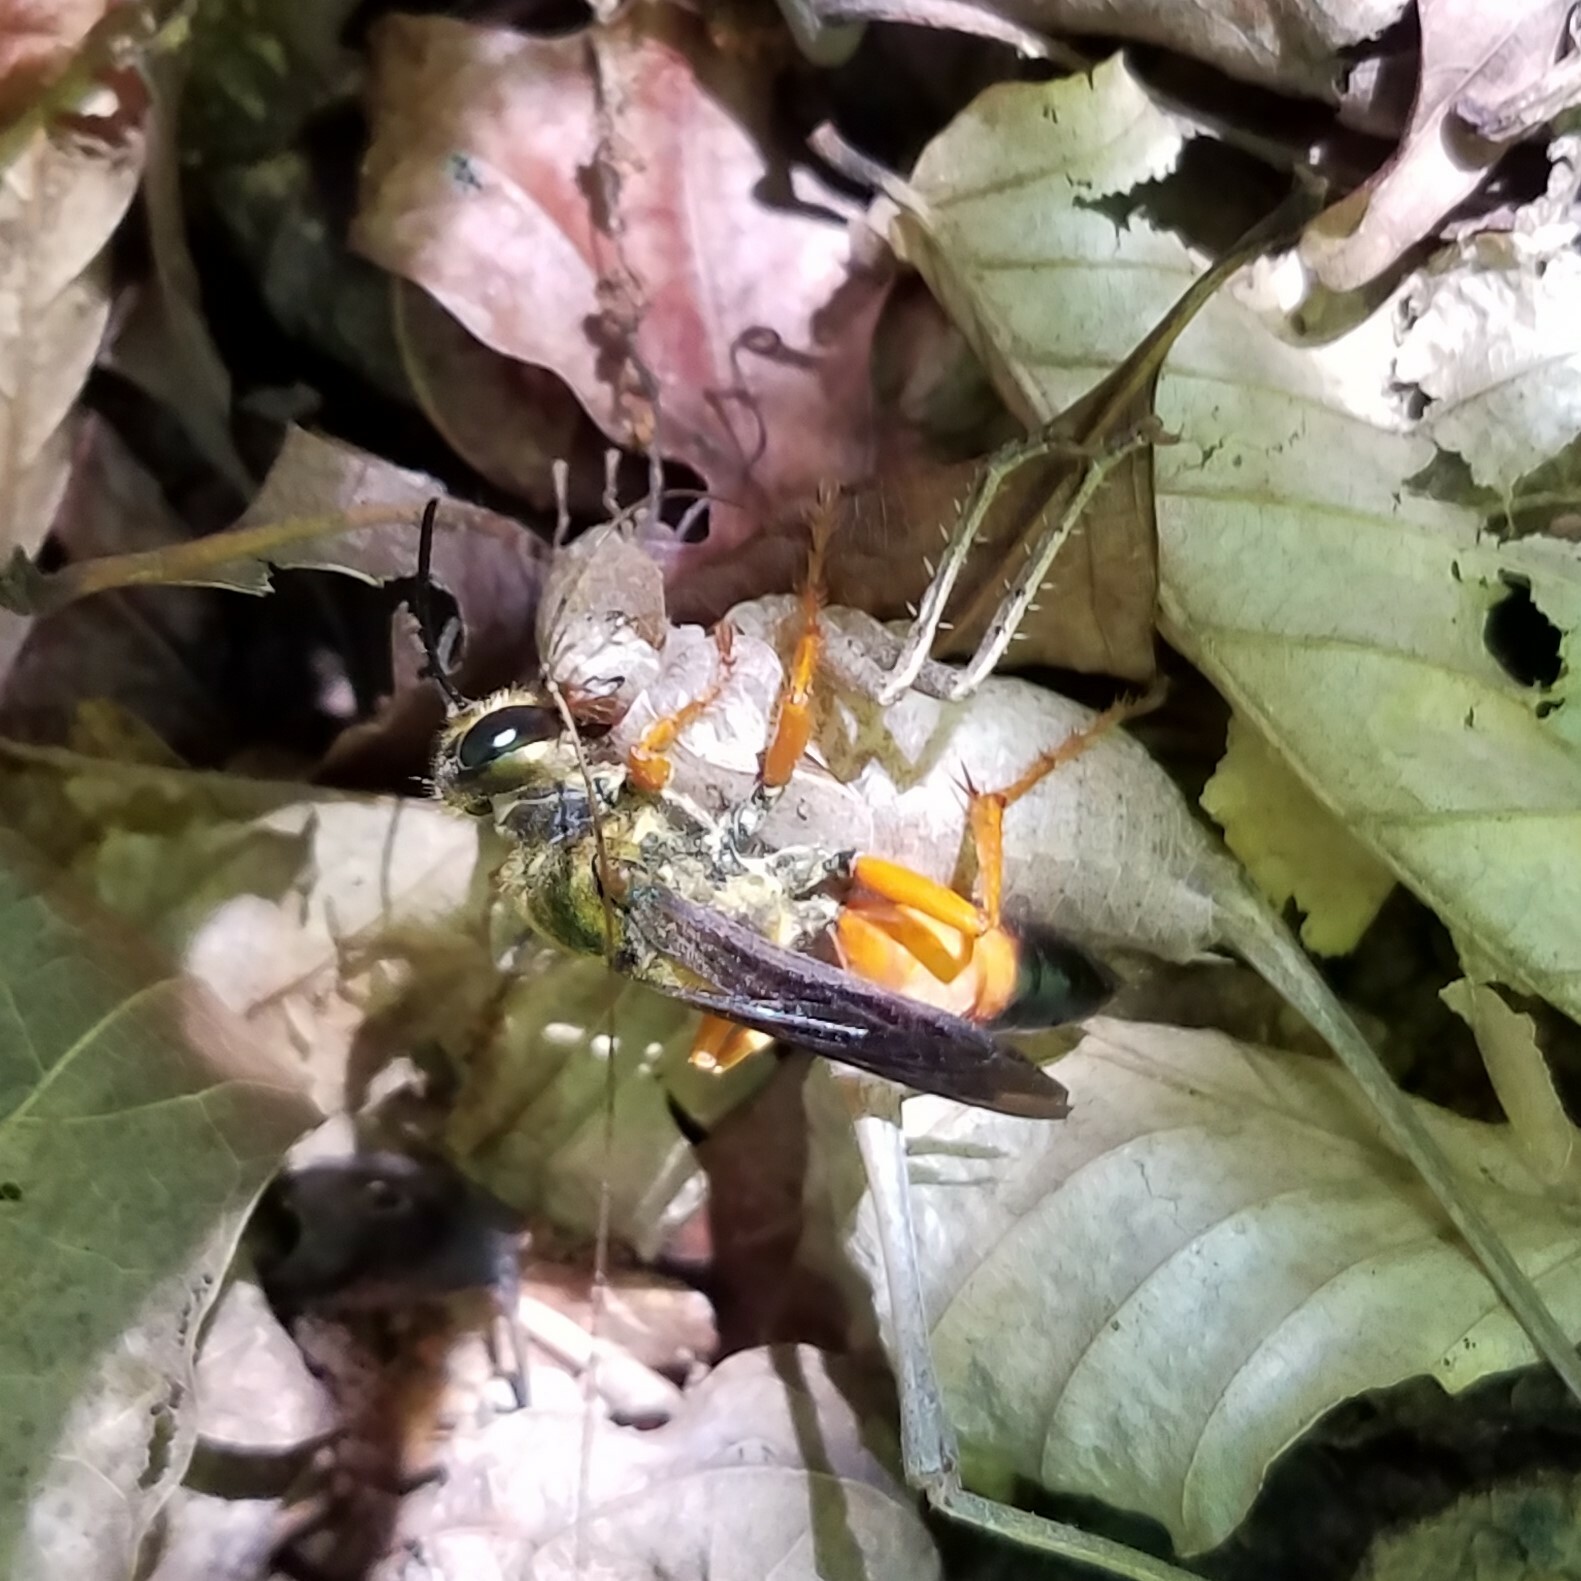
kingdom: Animalia
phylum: Arthropoda
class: Insecta
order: Hymenoptera
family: Sphecidae
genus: Sphex
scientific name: Sphex ichneumoneus
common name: Great golden digger wasp
